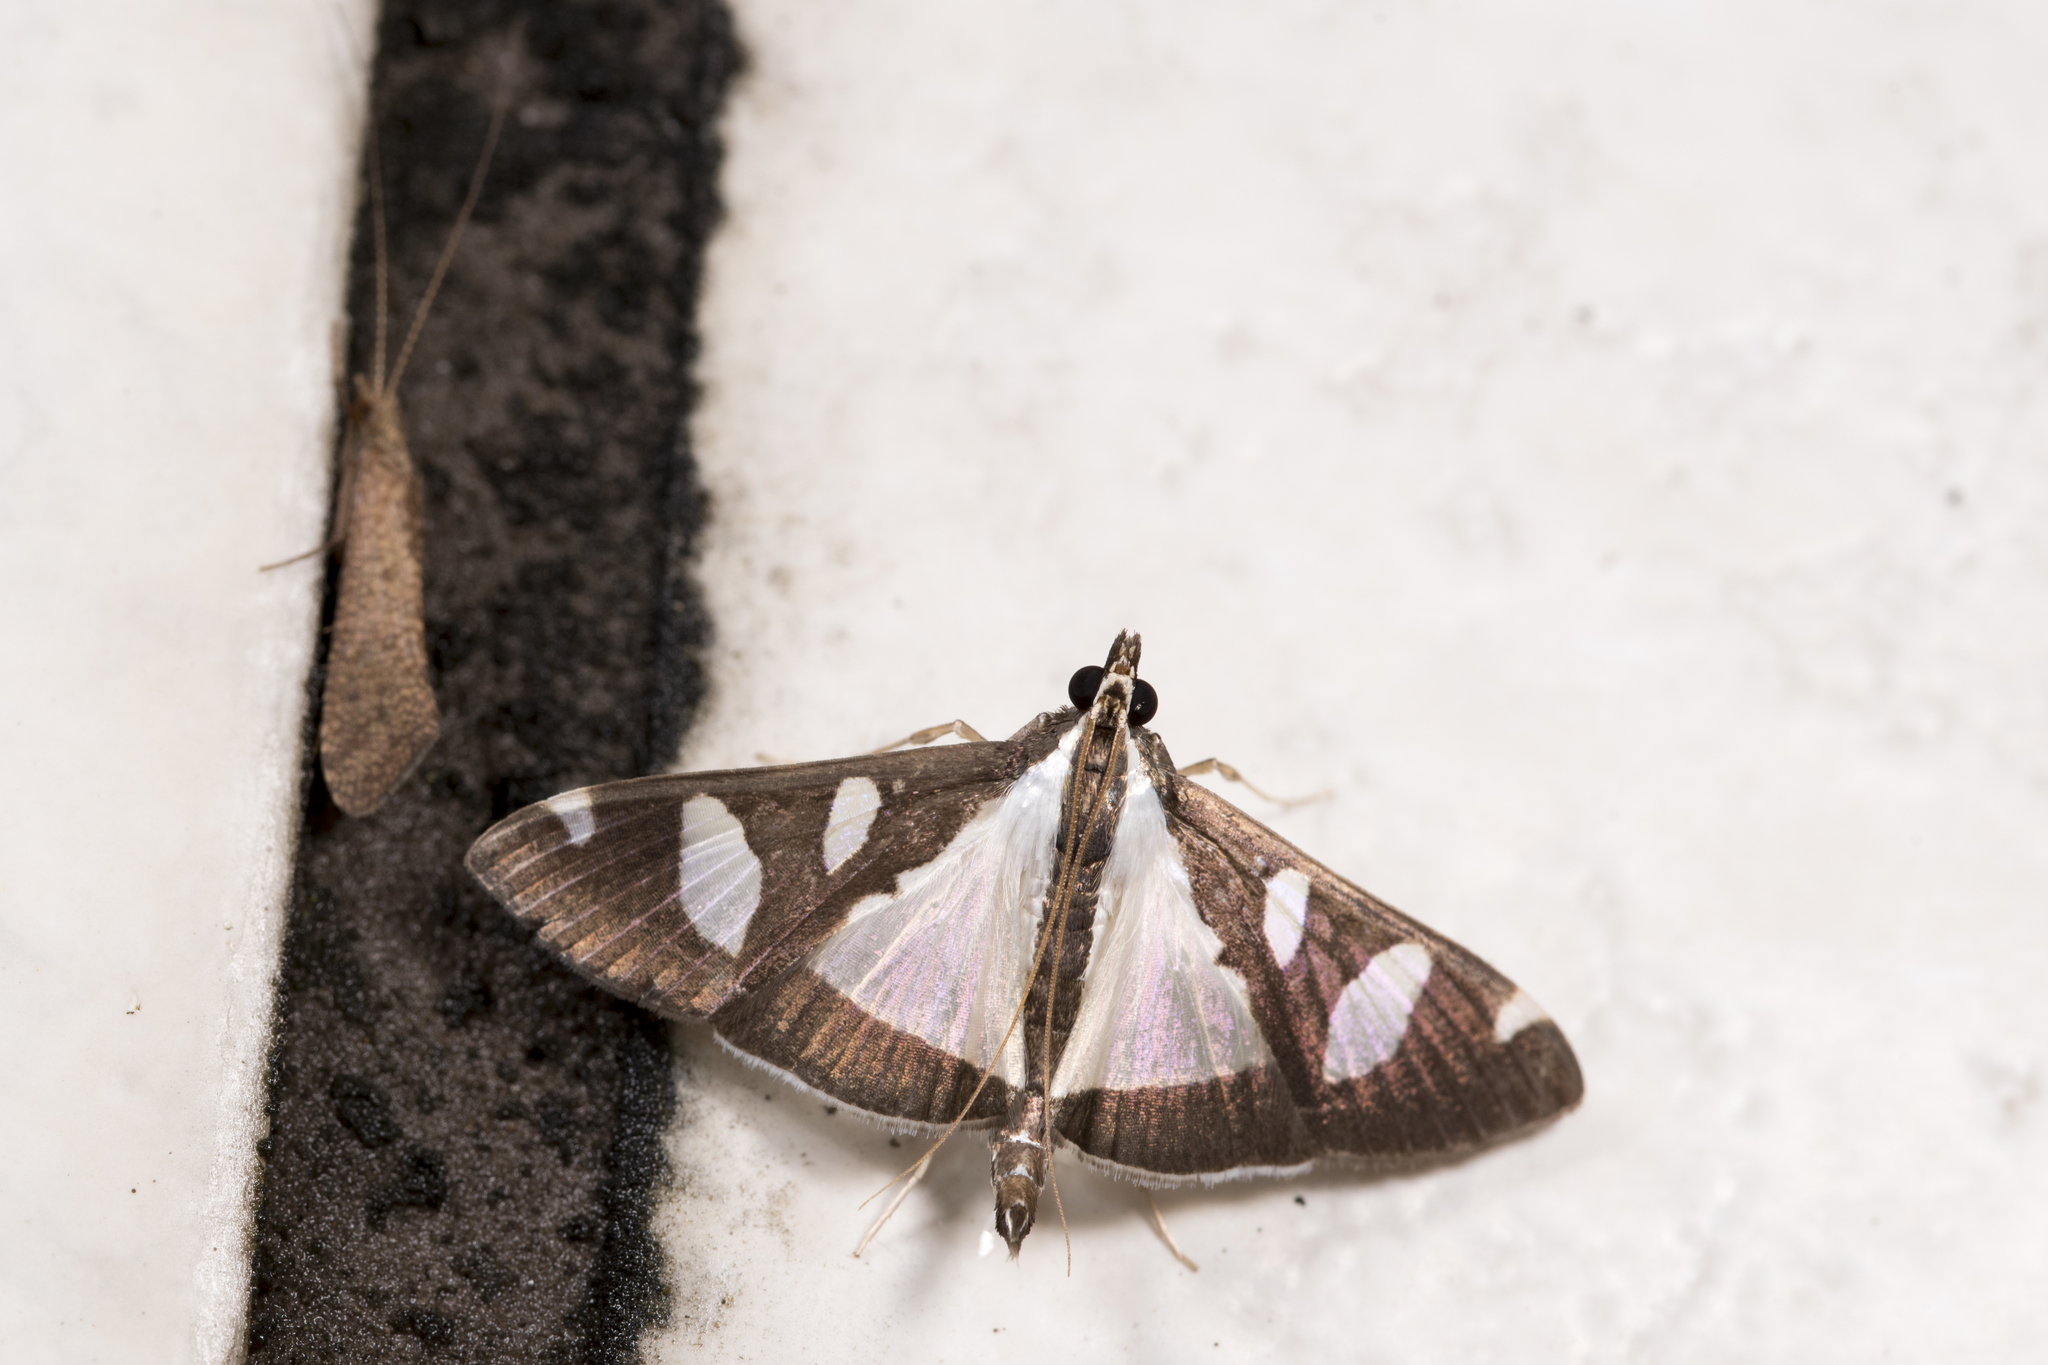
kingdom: Animalia
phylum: Arthropoda
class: Insecta
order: Lepidoptera
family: Crambidae
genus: Glyphodes
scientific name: Glyphodes actorionalis
